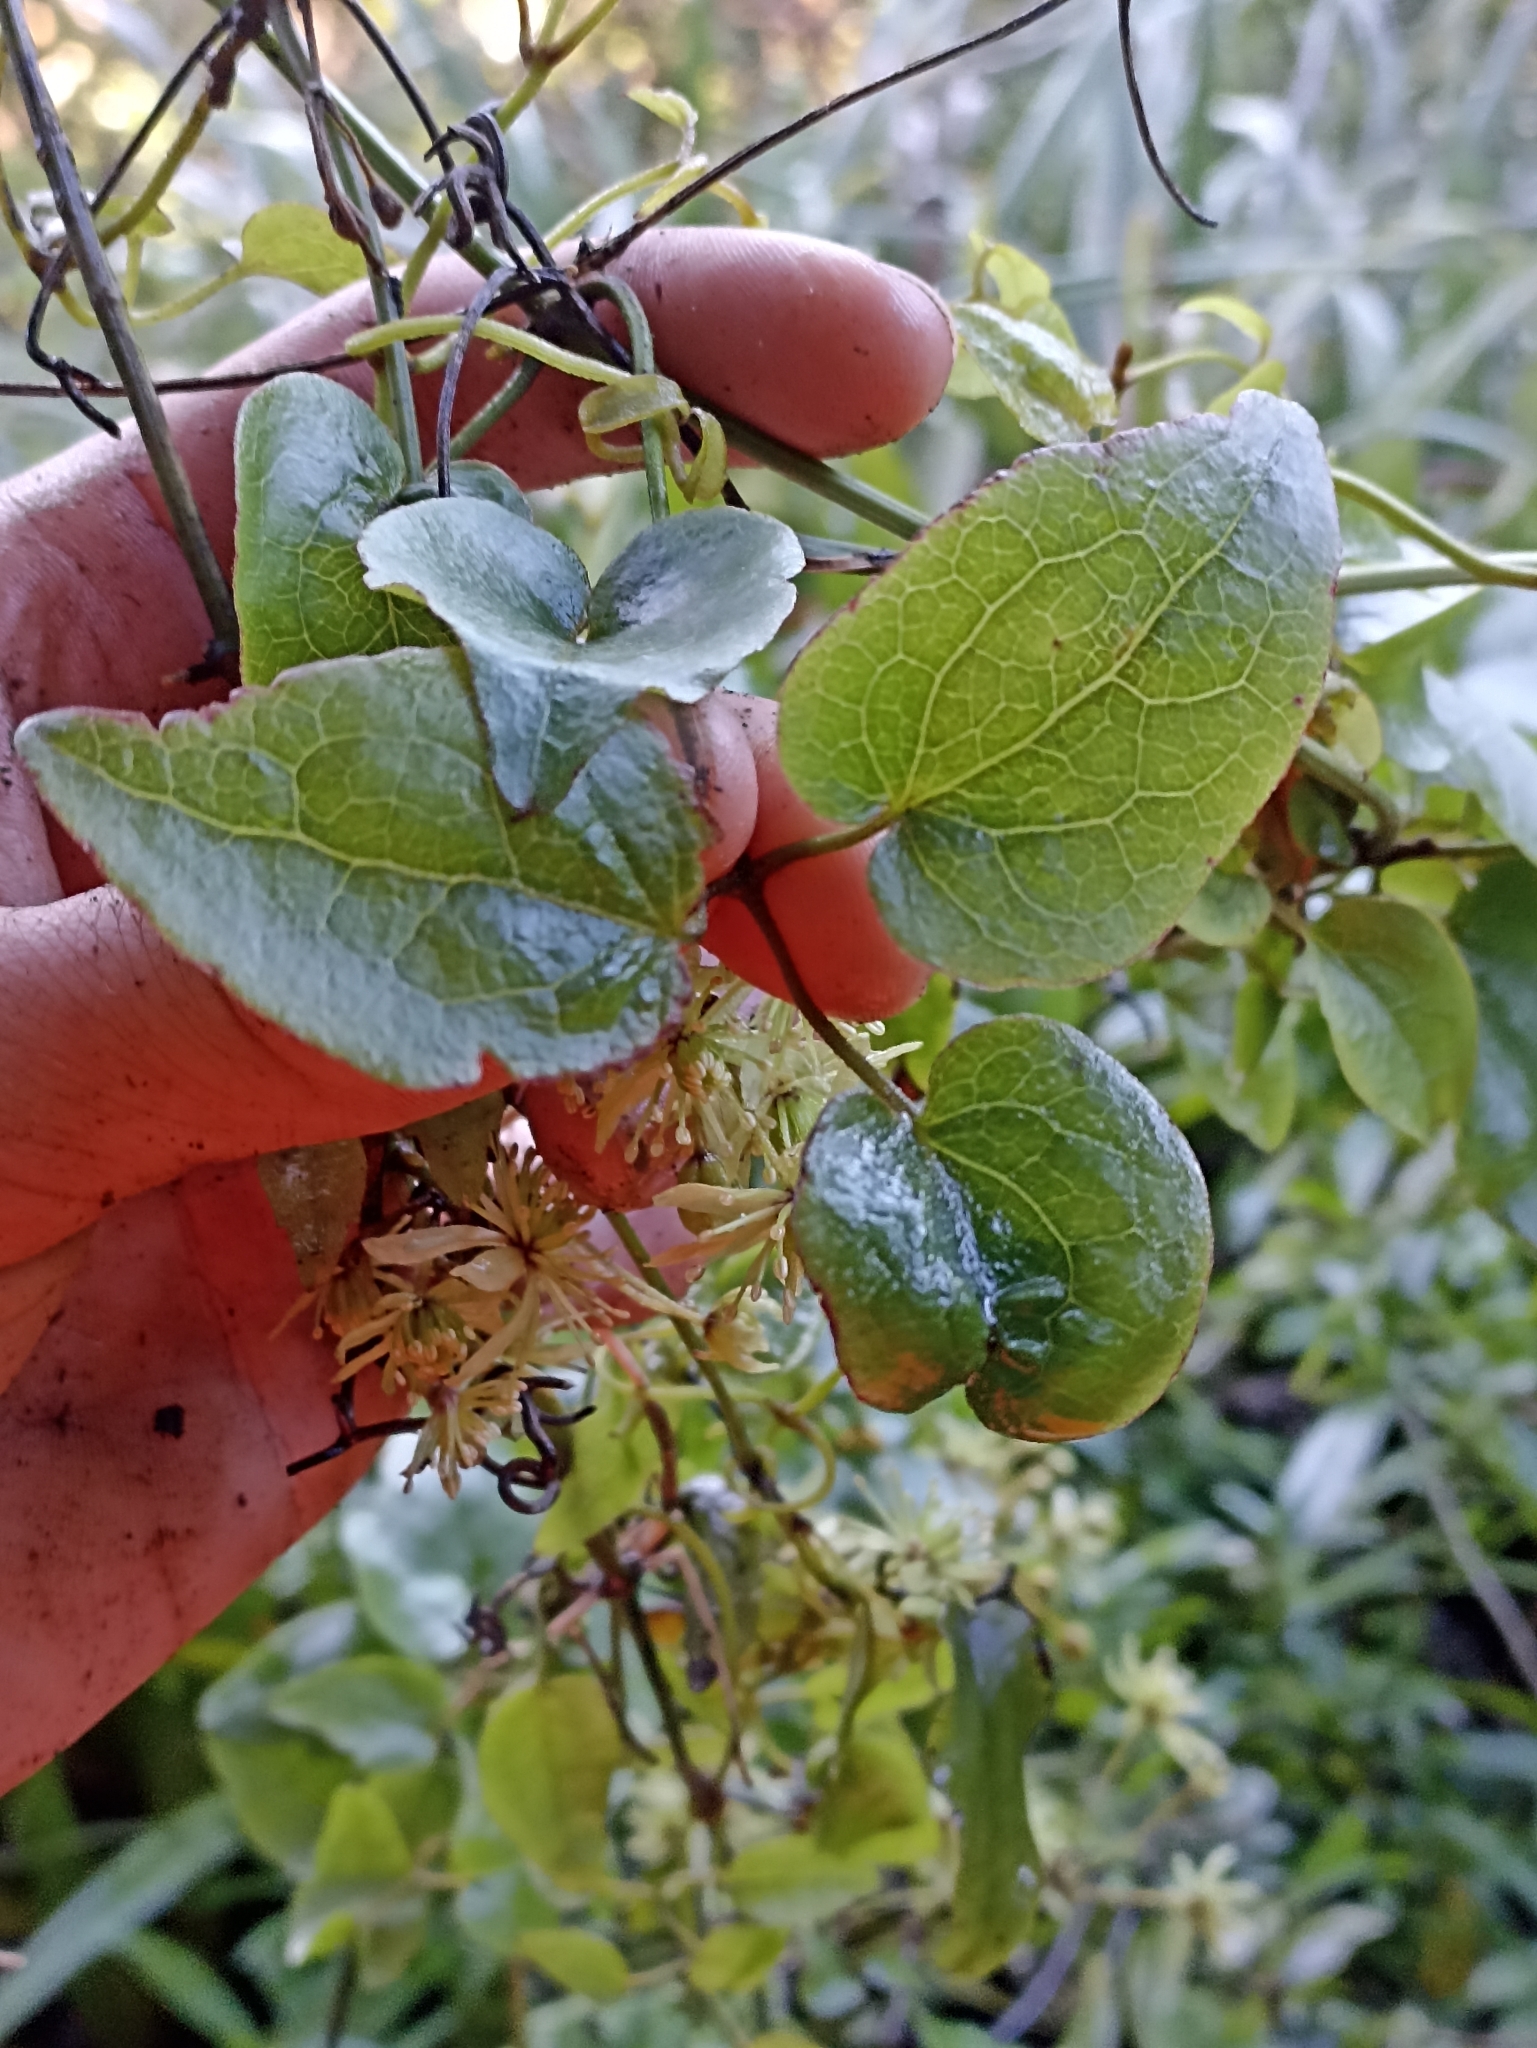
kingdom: Plantae
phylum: Tracheophyta
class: Magnoliopsida
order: Ranunculales
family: Ranunculaceae
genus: Clematis
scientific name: Clematis cunninghamii
